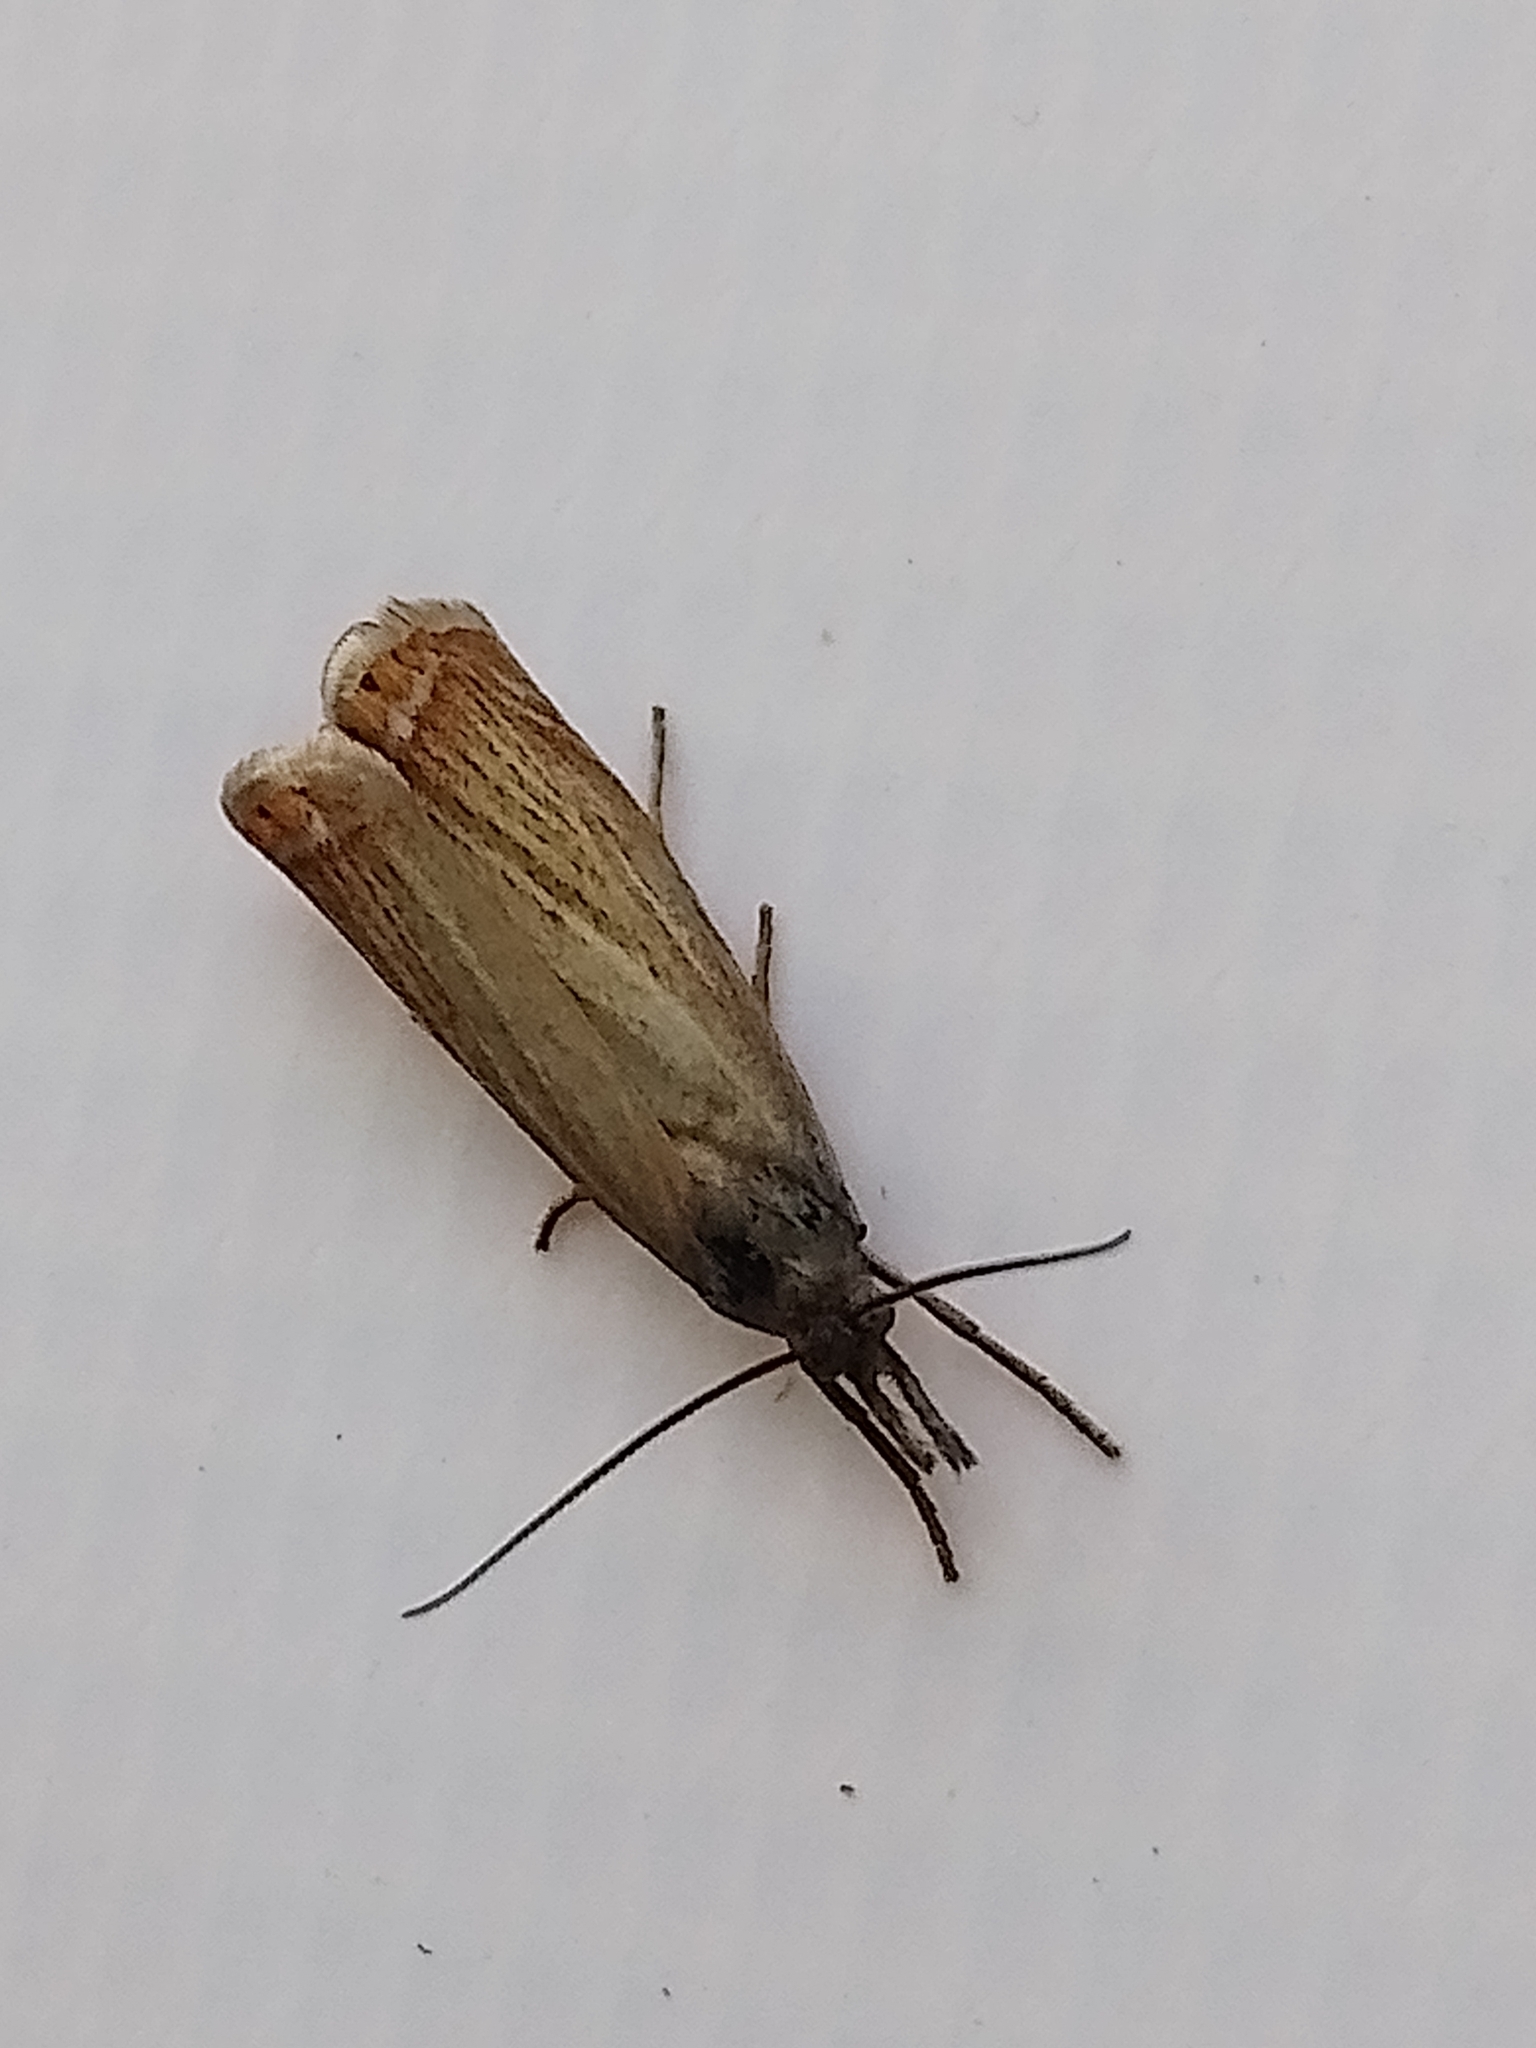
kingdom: Animalia
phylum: Arthropoda
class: Insecta
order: Lepidoptera
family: Crambidae
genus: Chrysoteuchia
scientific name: Chrysoteuchia culmella
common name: Garden grass-veneer
